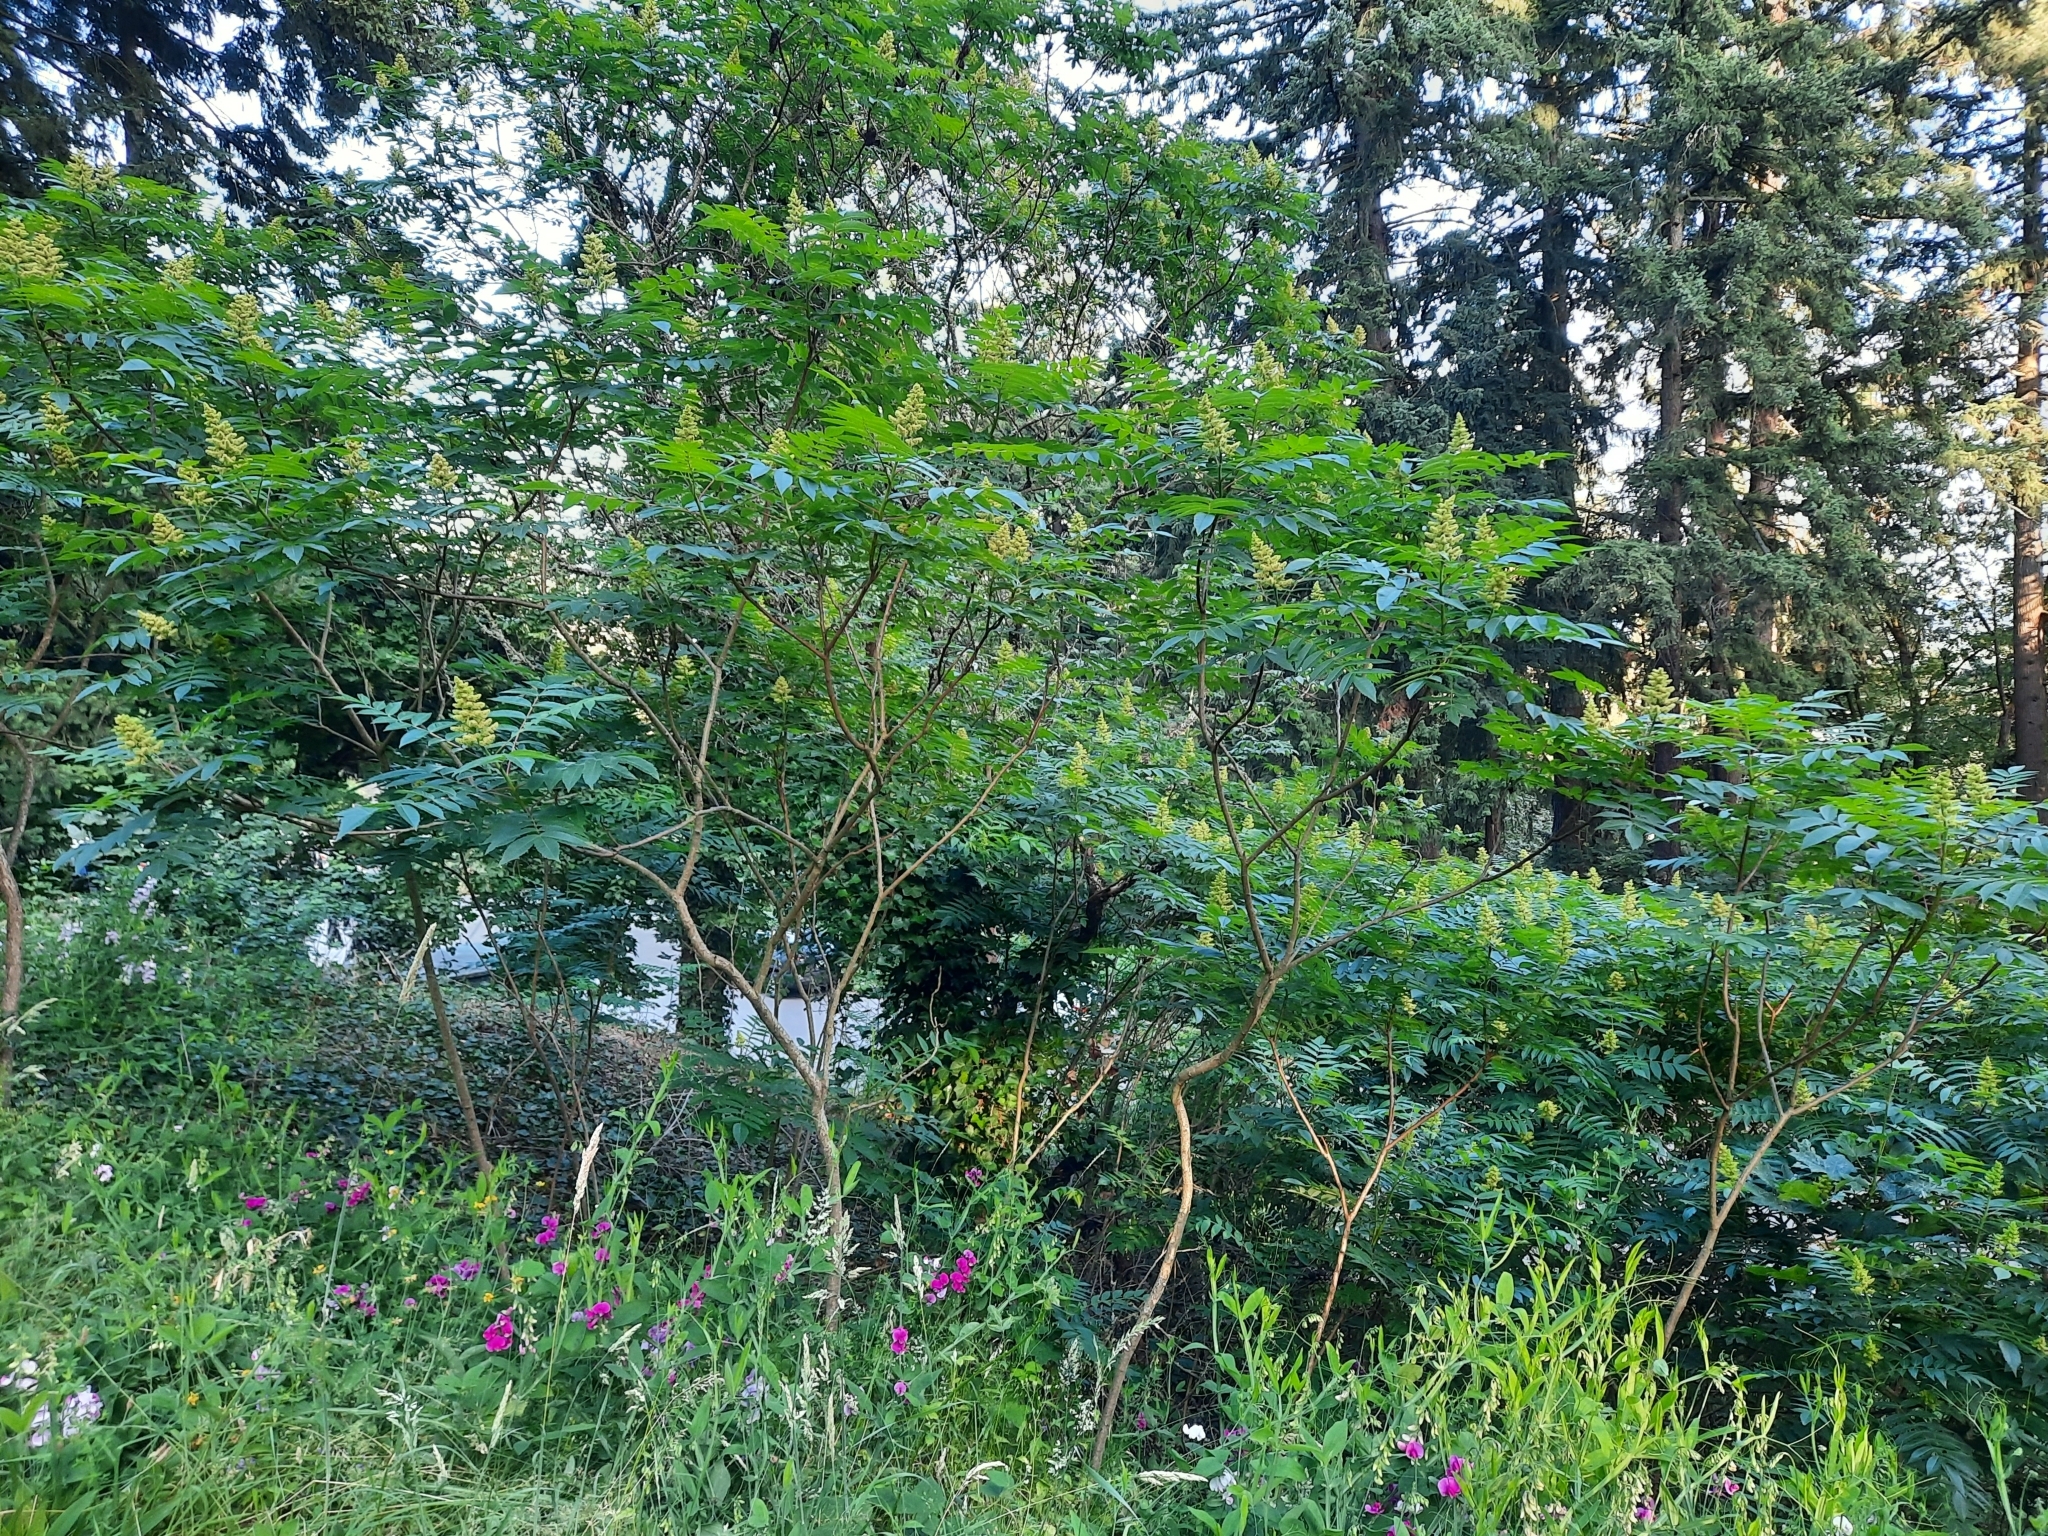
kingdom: Plantae
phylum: Tracheophyta
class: Magnoliopsida
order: Sapindales
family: Simaroubaceae
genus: Ailanthus
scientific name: Ailanthus altissima
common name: Tree-of-heaven
